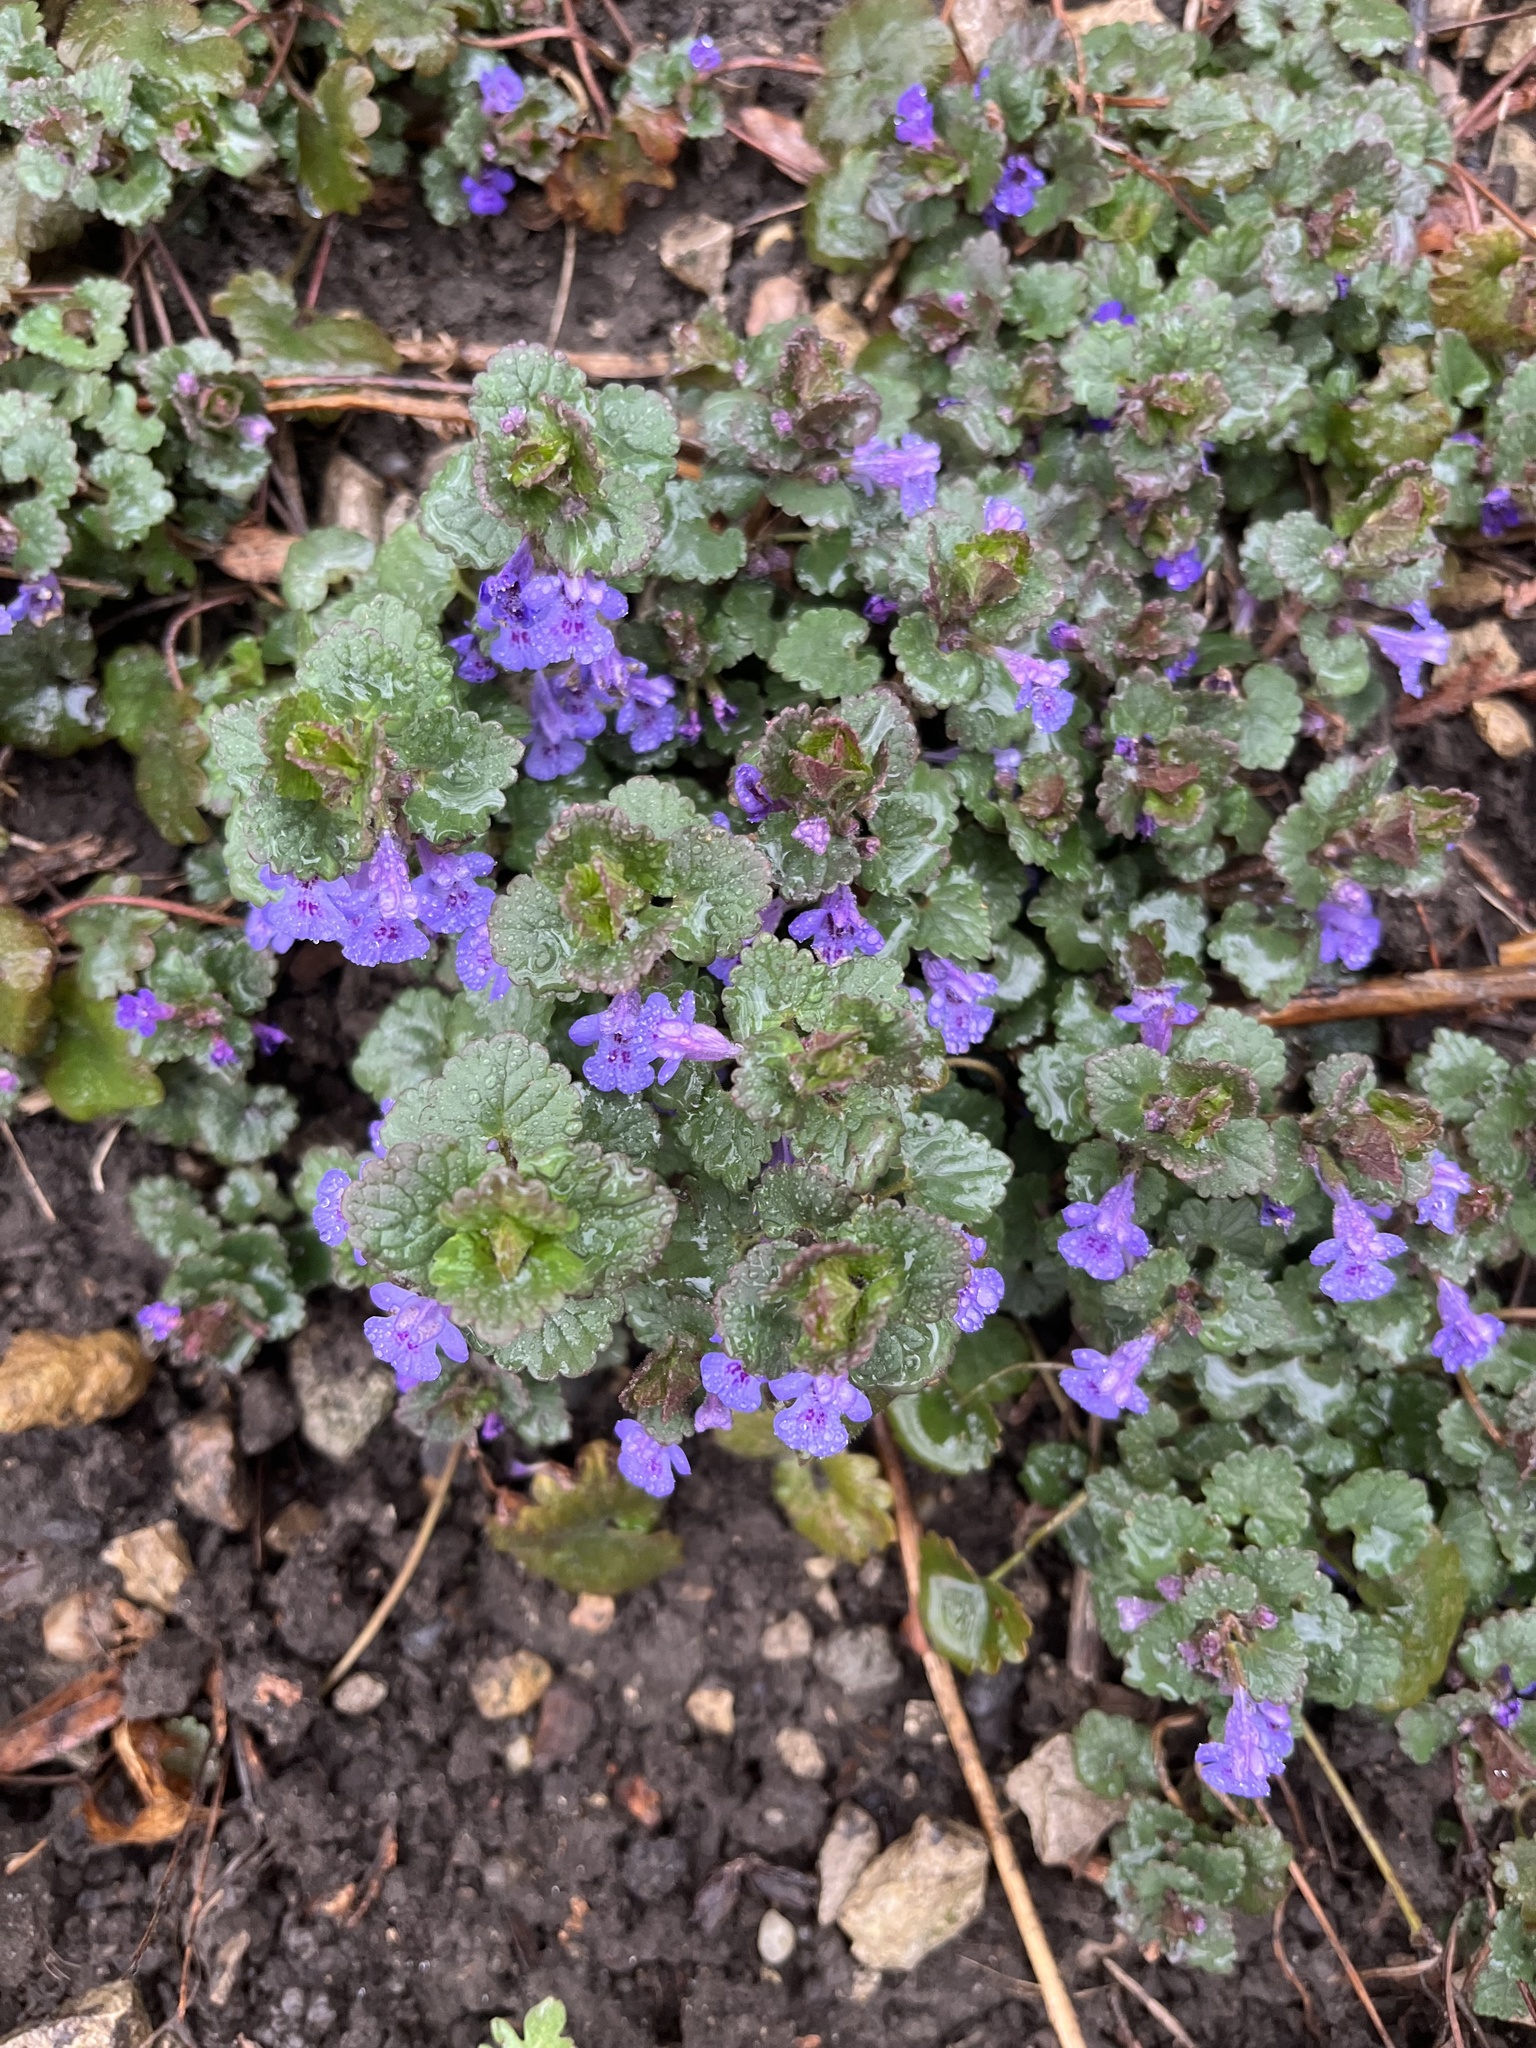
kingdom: Plantae
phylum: Tracheophyta
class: Magnoliopsida
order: Lamiales
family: Lamiaceae
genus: Glechoma
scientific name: Glechoma hederacea
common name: Ground ivy
